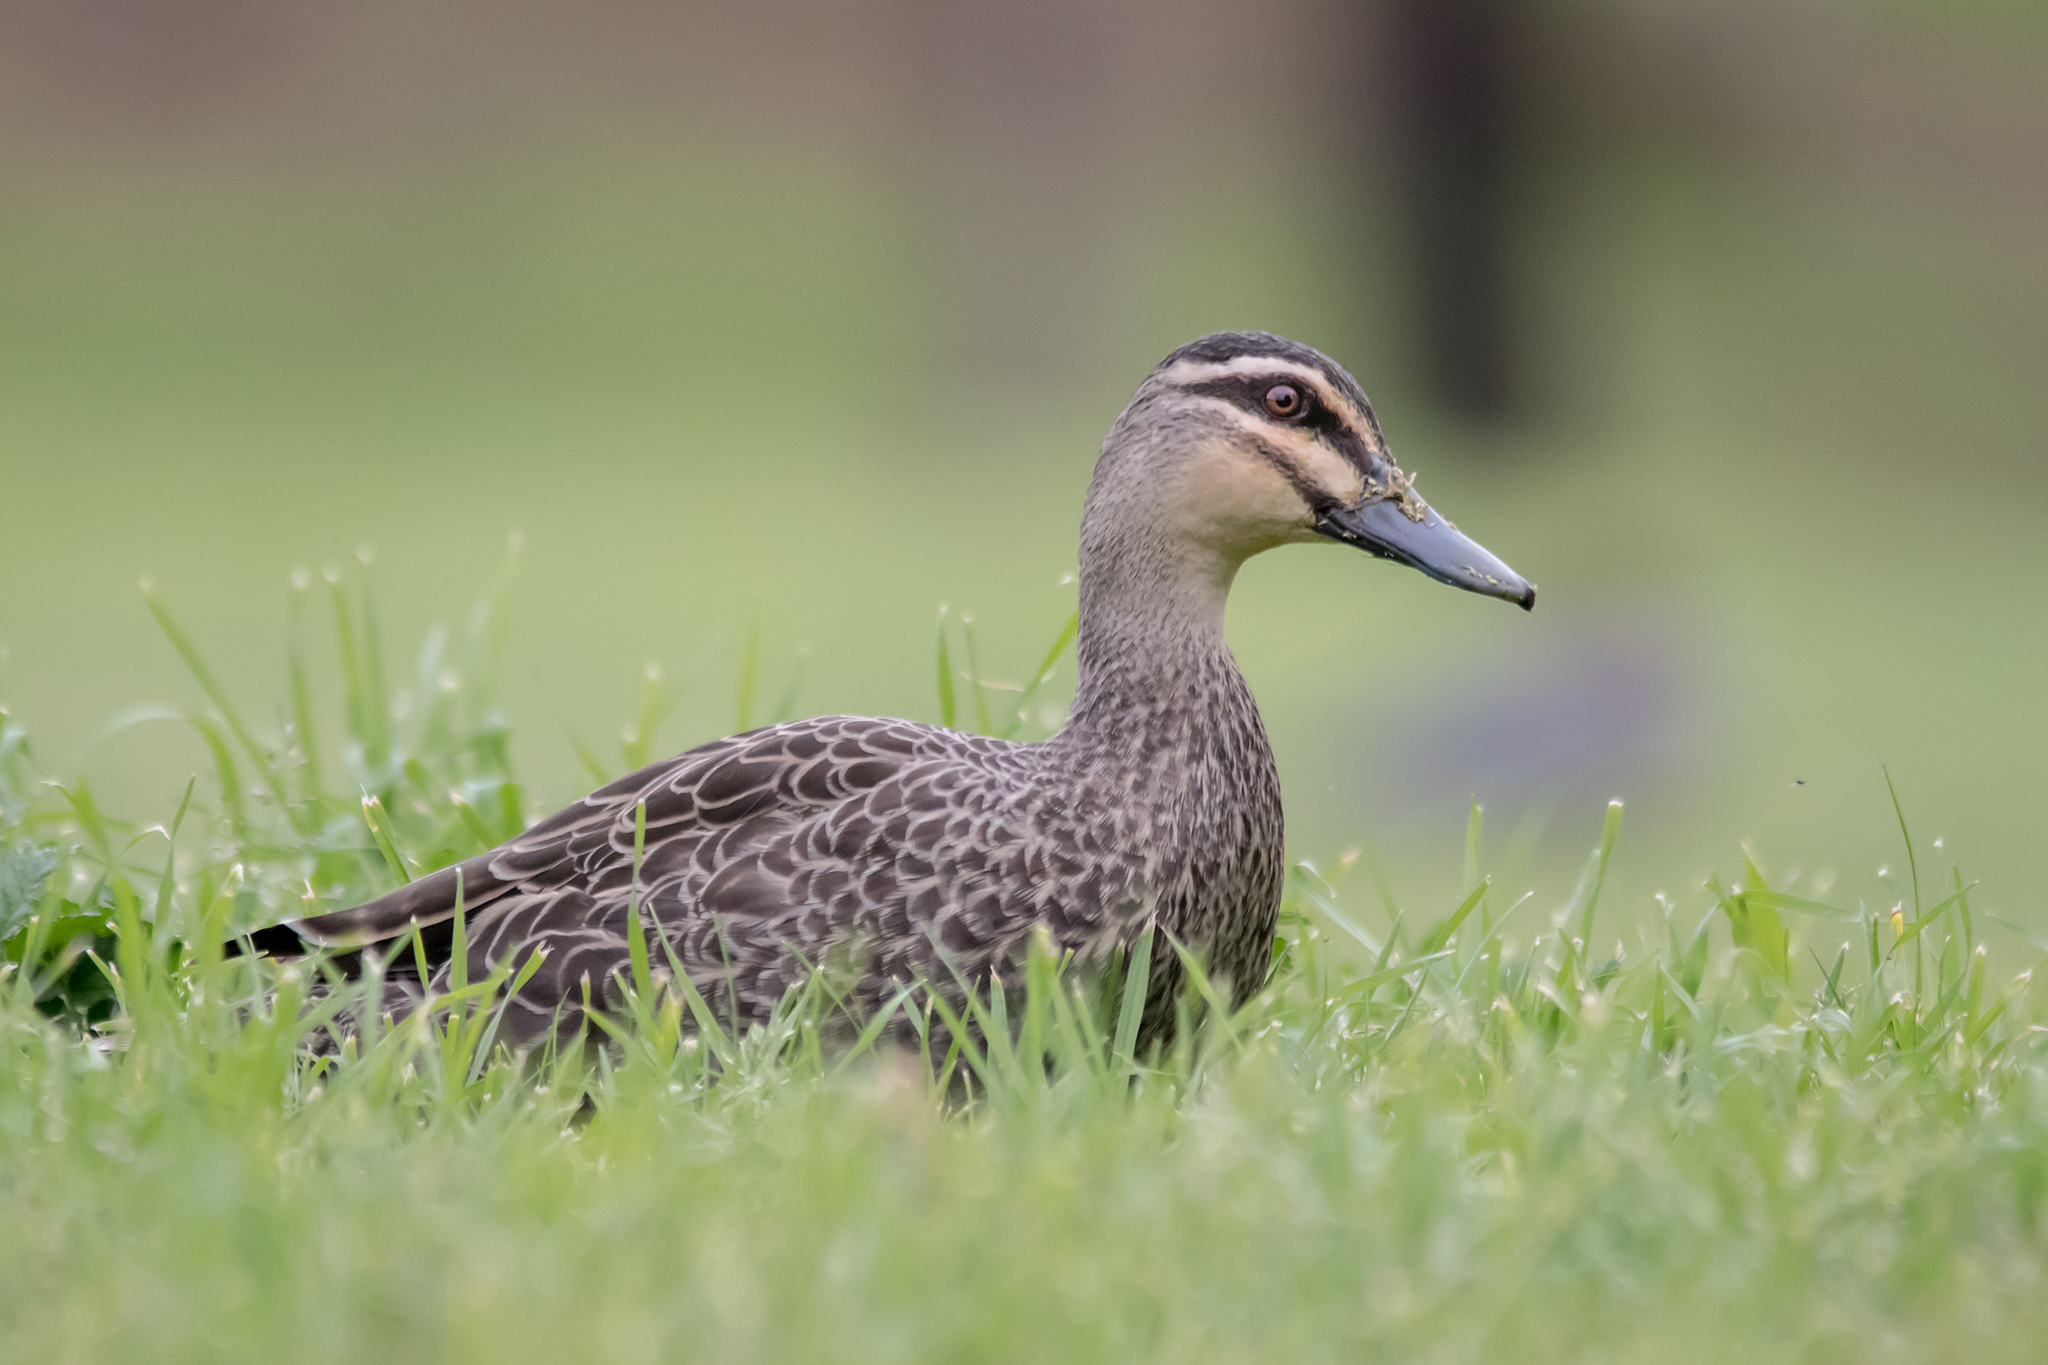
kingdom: Animalia
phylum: Chordata
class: Aves
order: Anseriformes
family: Anatidae
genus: Anas
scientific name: Anas superciliosa
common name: Pacific black duck
